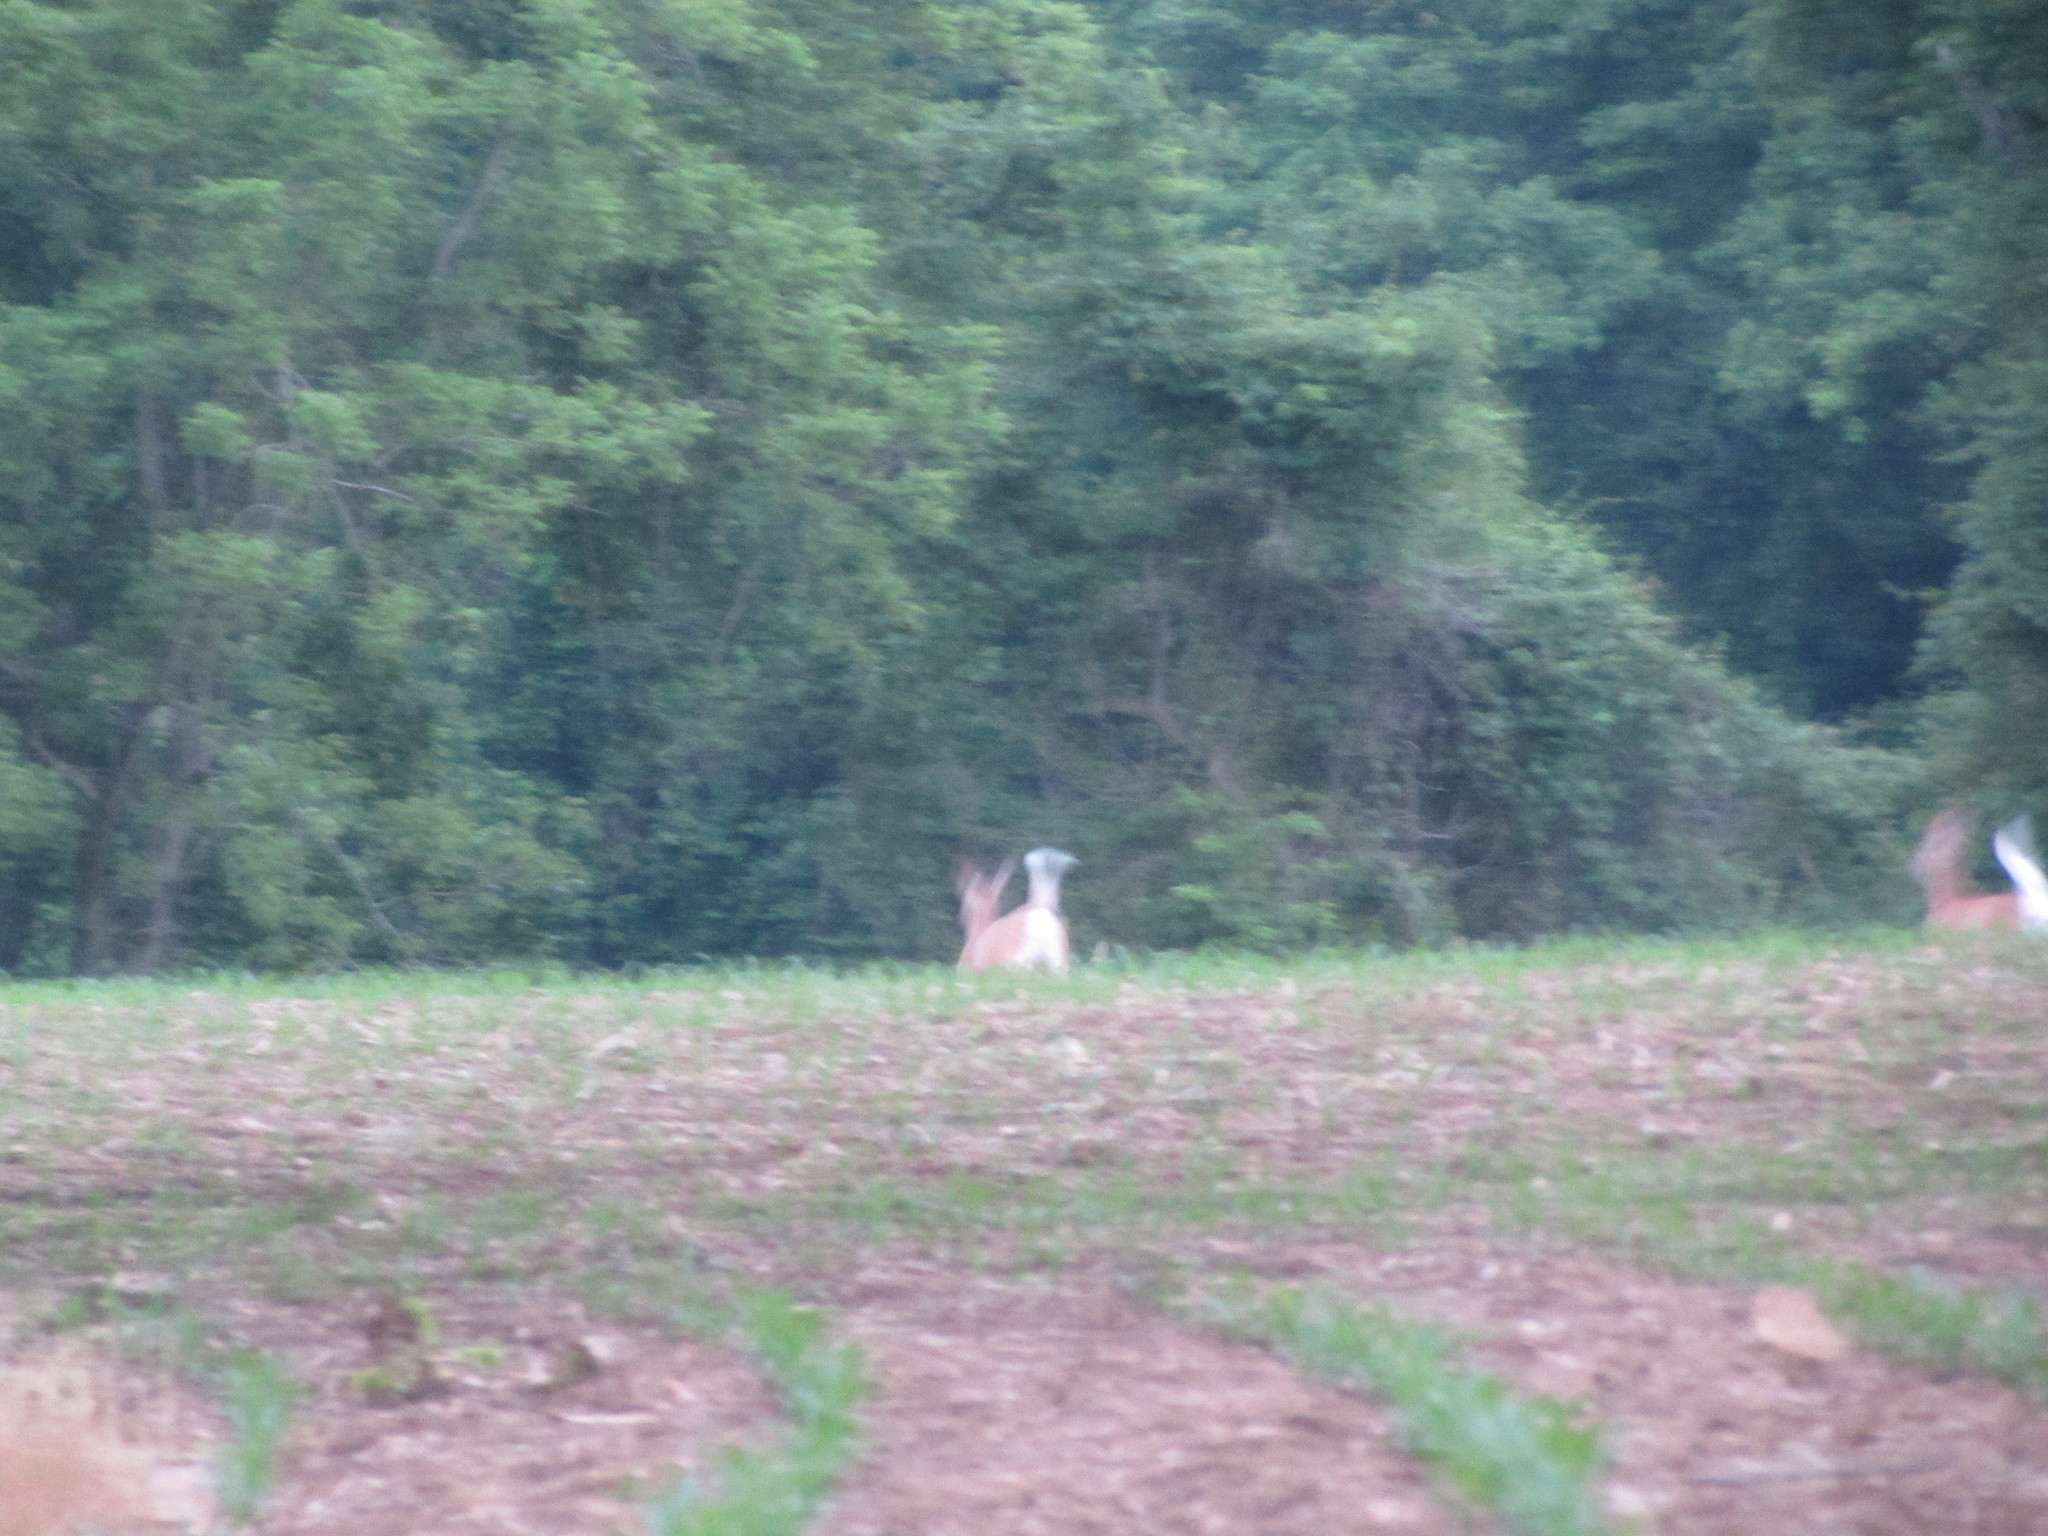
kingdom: Animalia
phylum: Chordata
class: Mammalia
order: Artiodactyla
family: Cervidae
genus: Odocoileus
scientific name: Odocoileus virginianus
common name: White-tailed deer
